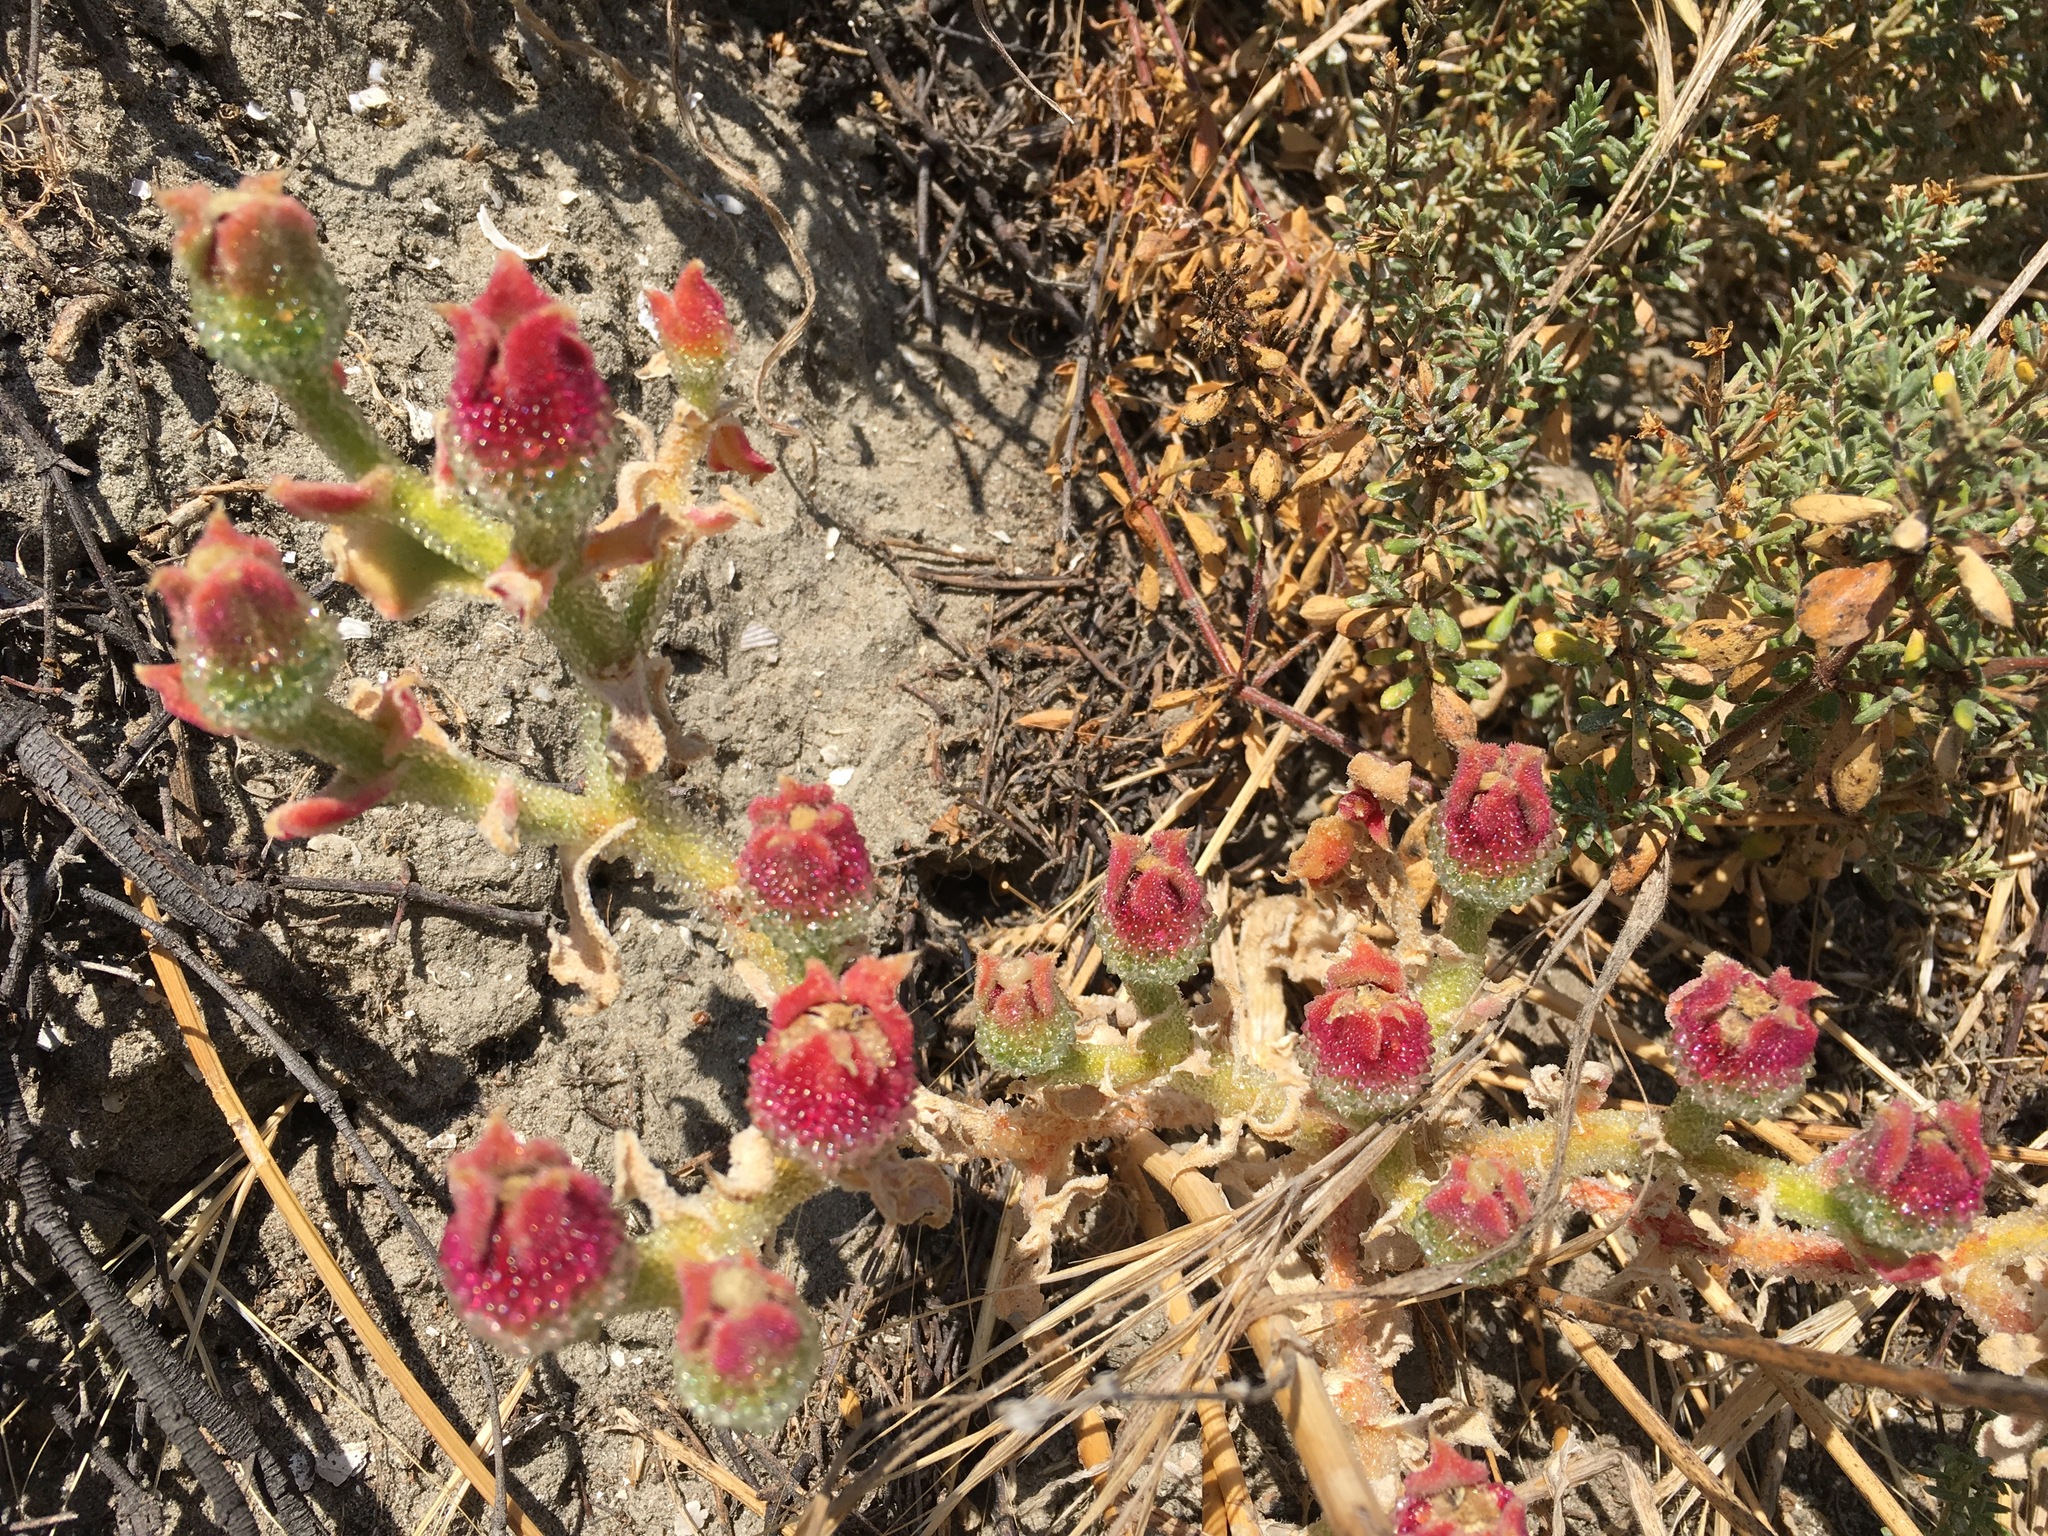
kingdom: Plantae
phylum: Tracheophyta
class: Magnoliopsida
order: Caryophyllales
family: Aizoaceae
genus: Mesembryanthemum
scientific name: Mesembryanthemum crystallinum
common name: Common iceplant
